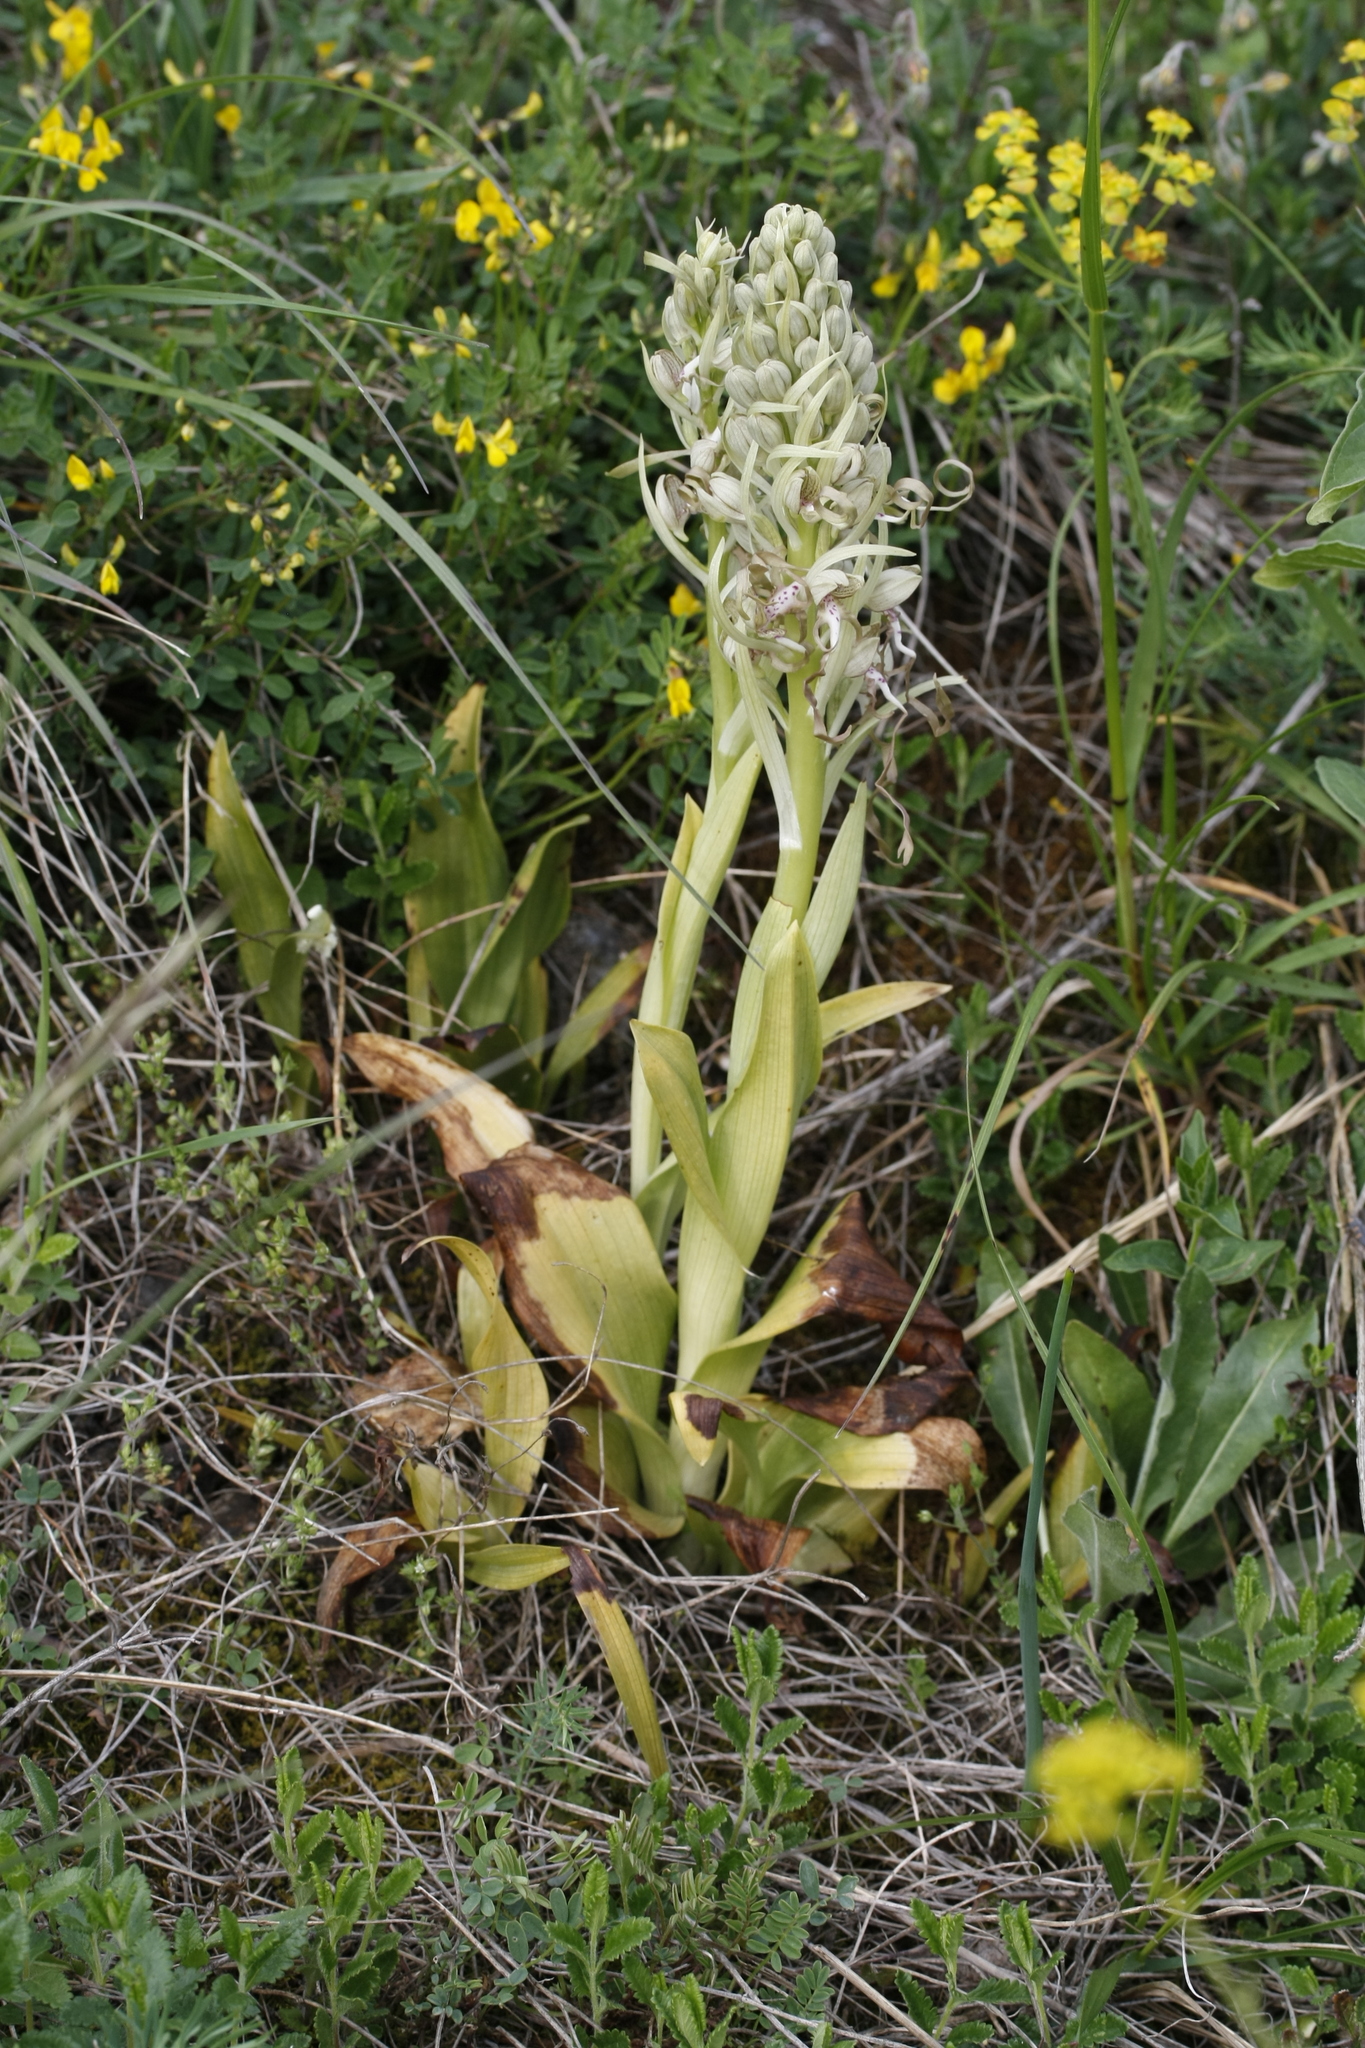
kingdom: Plantae
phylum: Tracheophyta
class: Liliopsida
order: Asparagales
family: Orchidaceae
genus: Himantoglossum
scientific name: Himantoglossum hircinum
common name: Lizard orchid
